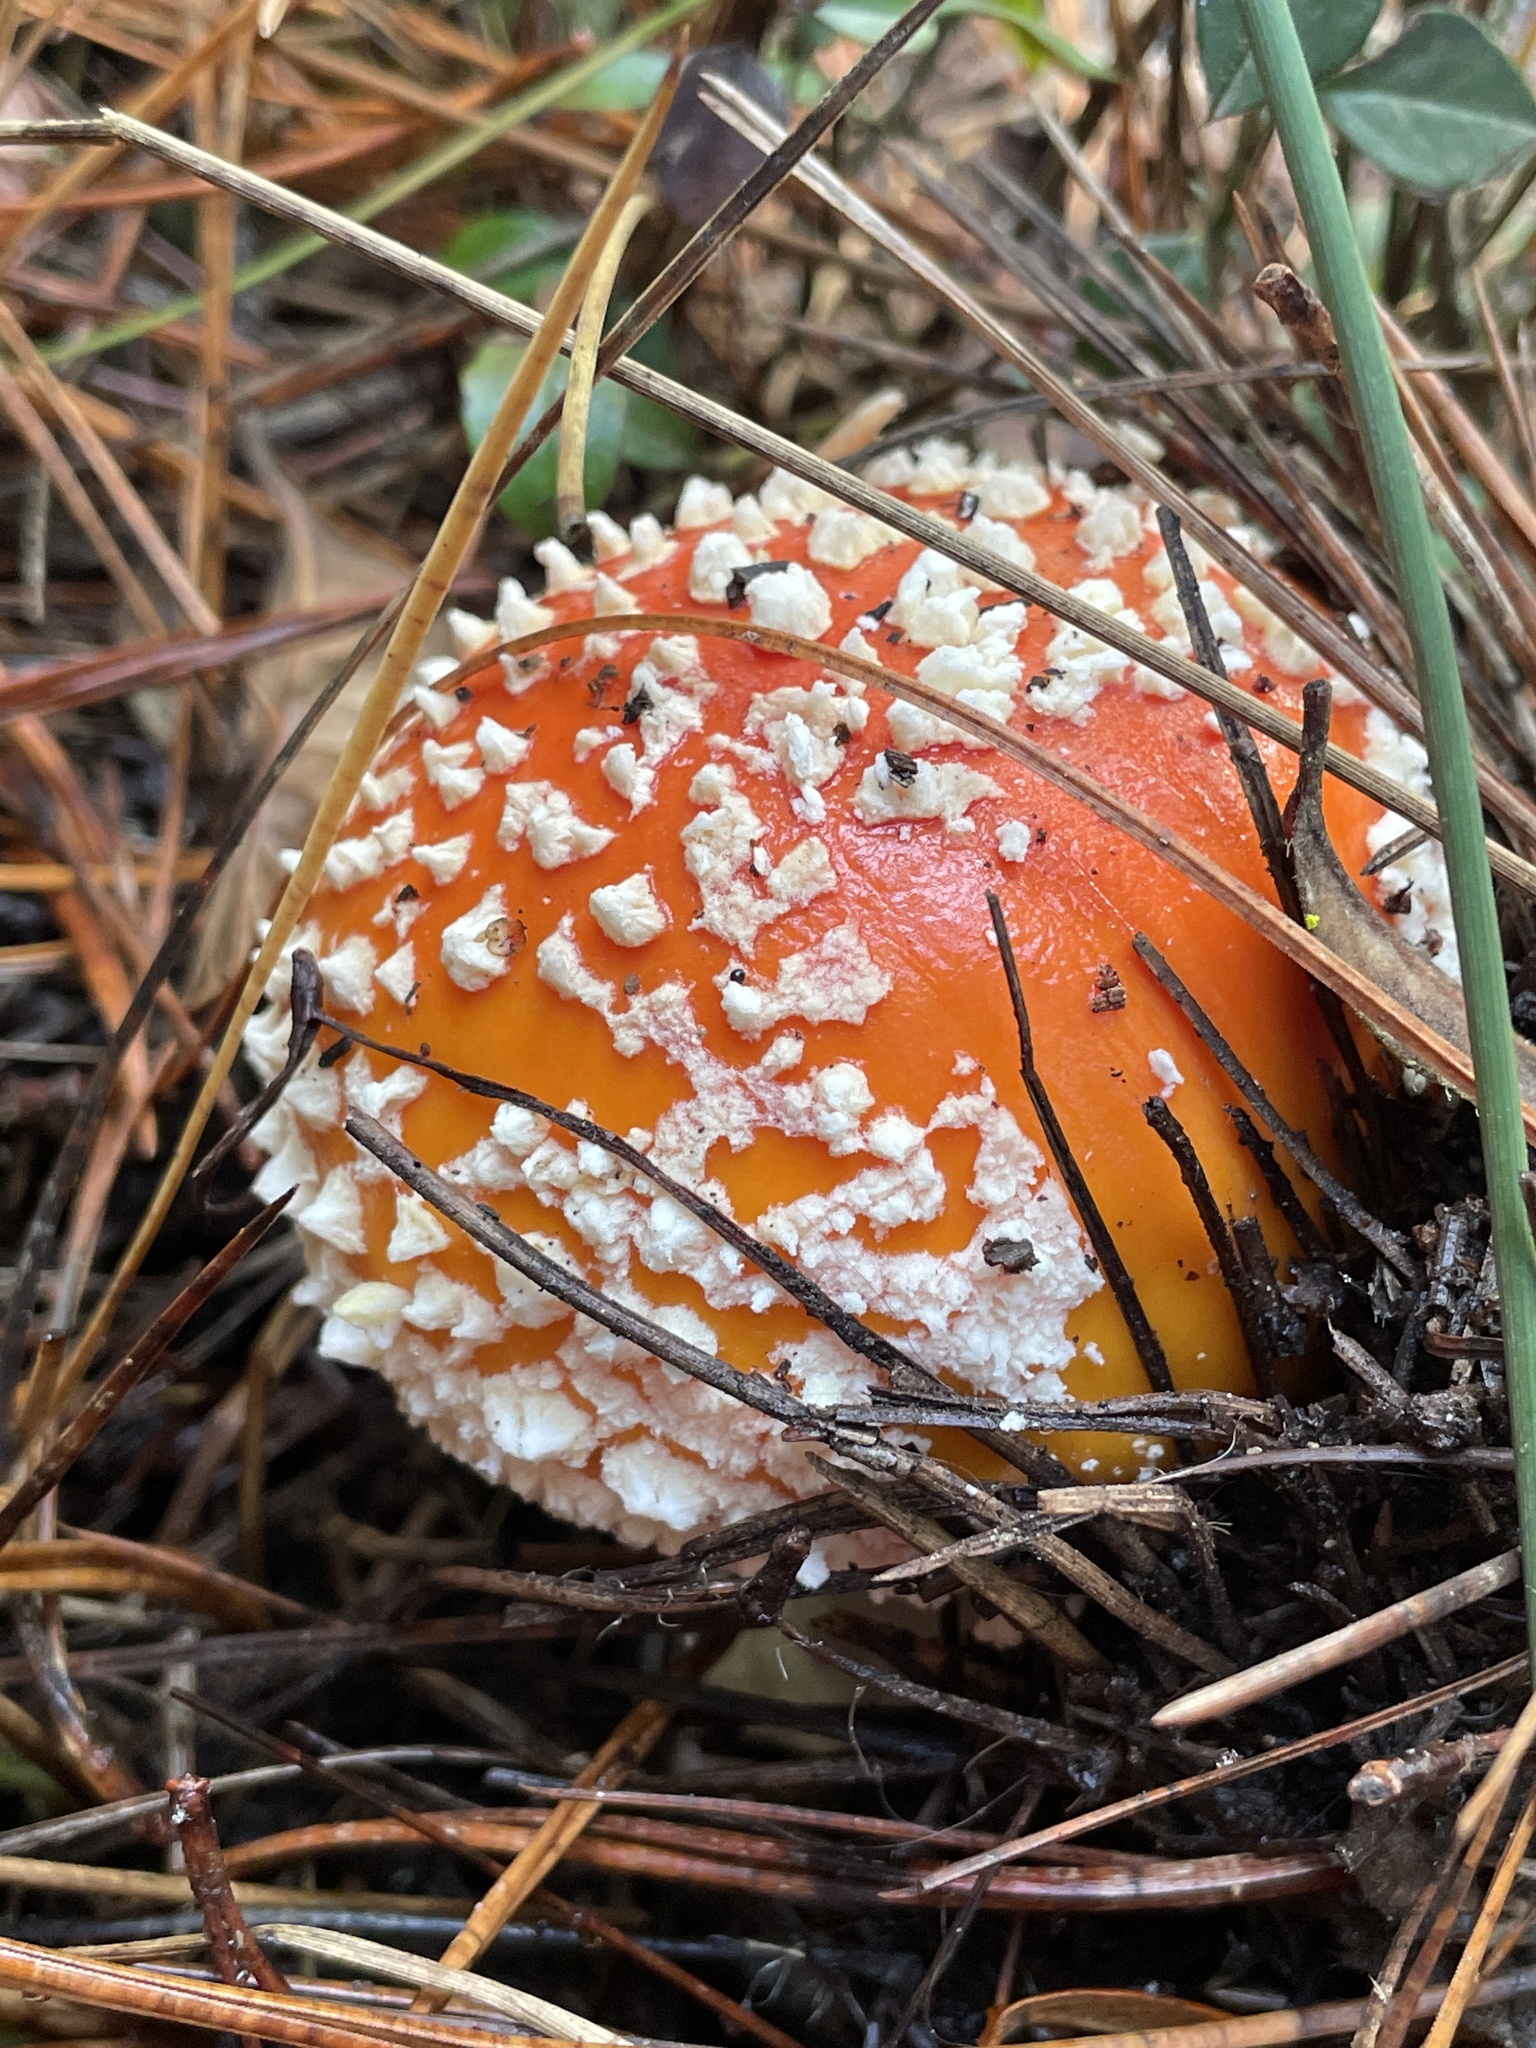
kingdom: Fungi
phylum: Basidiomycota
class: Agaricomycetes
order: Agaricales
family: Amanitaceae
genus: Amanita
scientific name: Amanita muscaria
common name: Fly agaric
